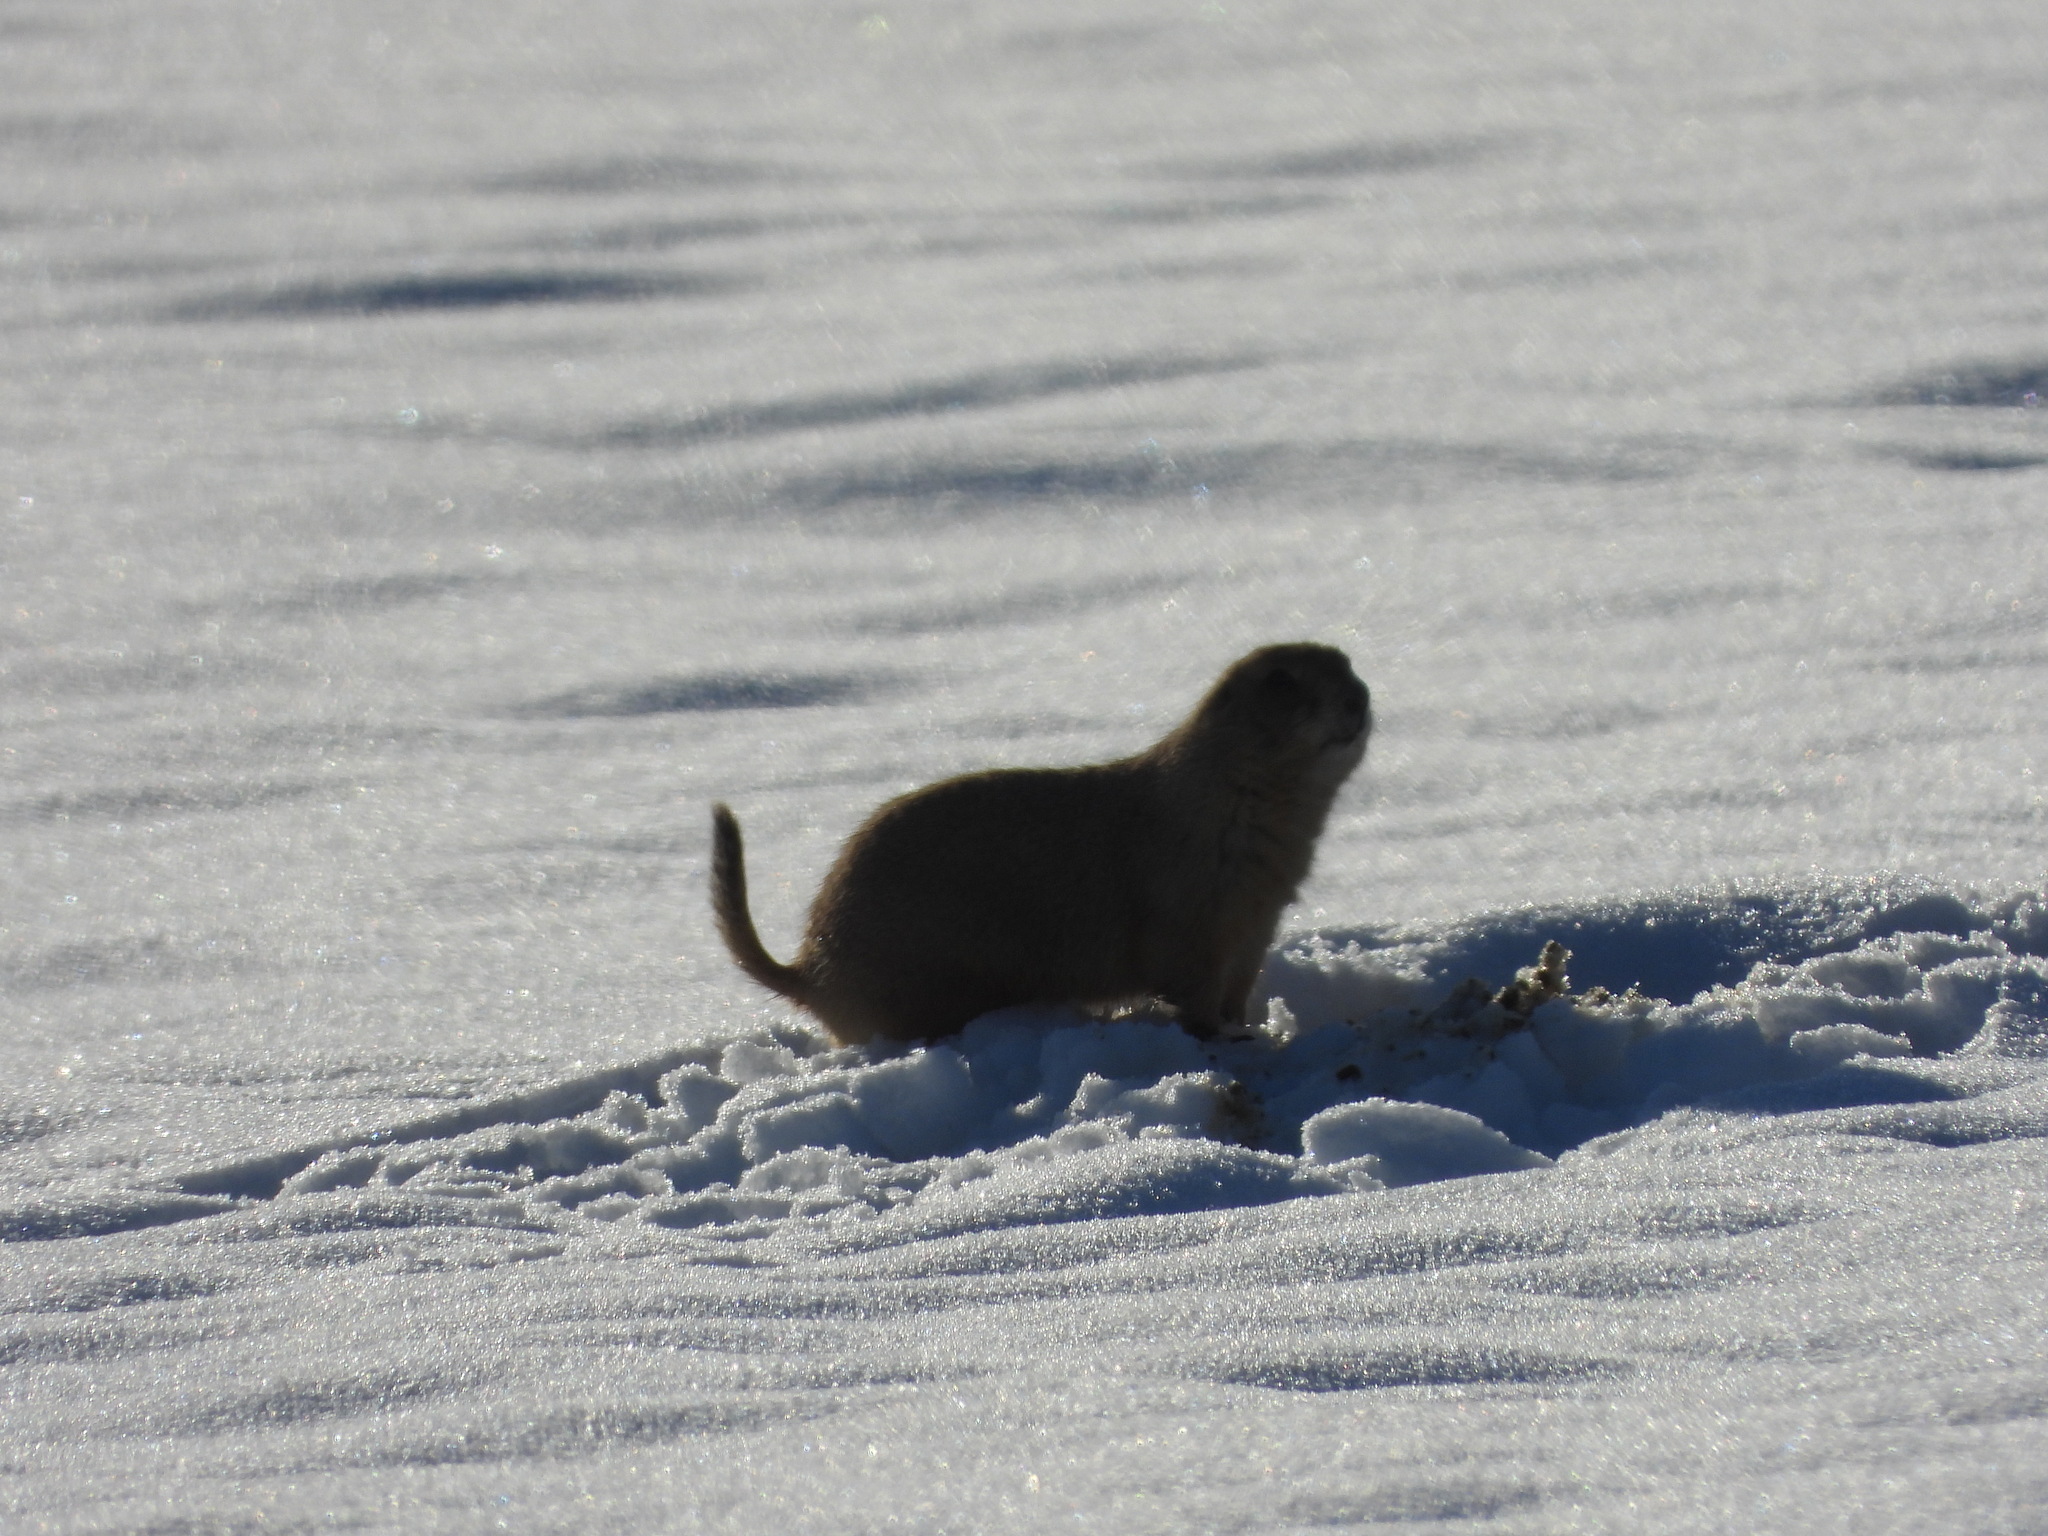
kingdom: Animalia
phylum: Chordata
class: Mammalia
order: Rodentia
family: Sciuridae
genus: Cynomys
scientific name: Cynomys ludovicianus
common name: Black-tailed prairie dog
